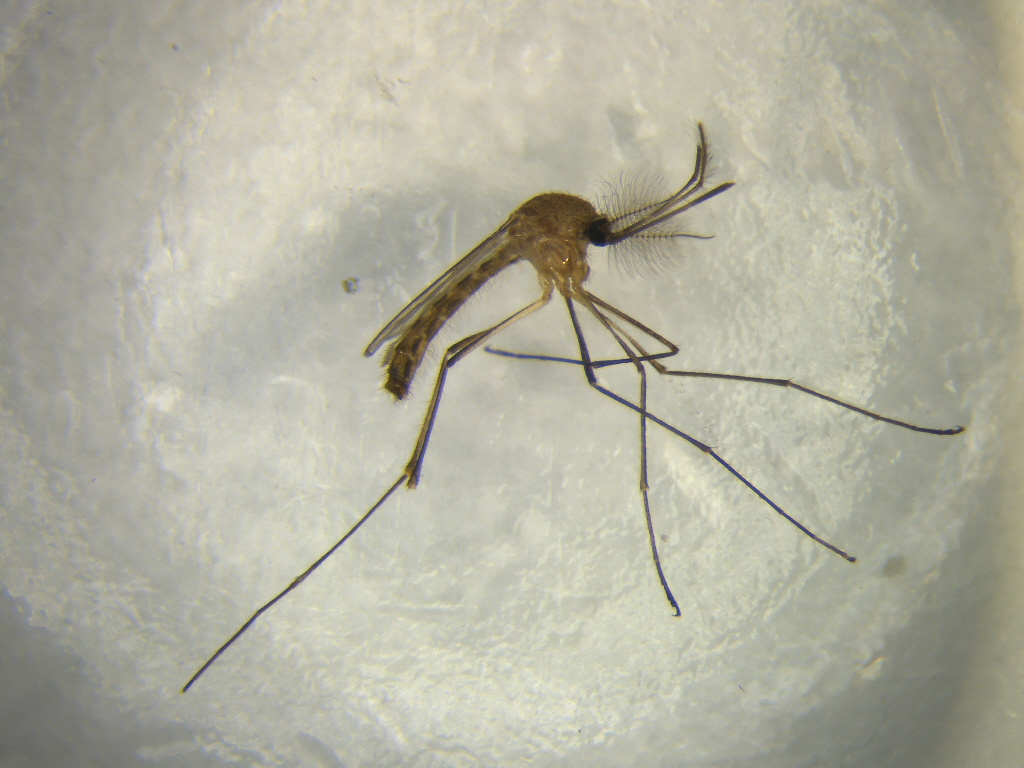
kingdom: Animalia
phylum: Arthropoda
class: Insecta
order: Diptera
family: Culicidae
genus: Culex
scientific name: Culex quinquefasciatus
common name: Southern house mosquito
